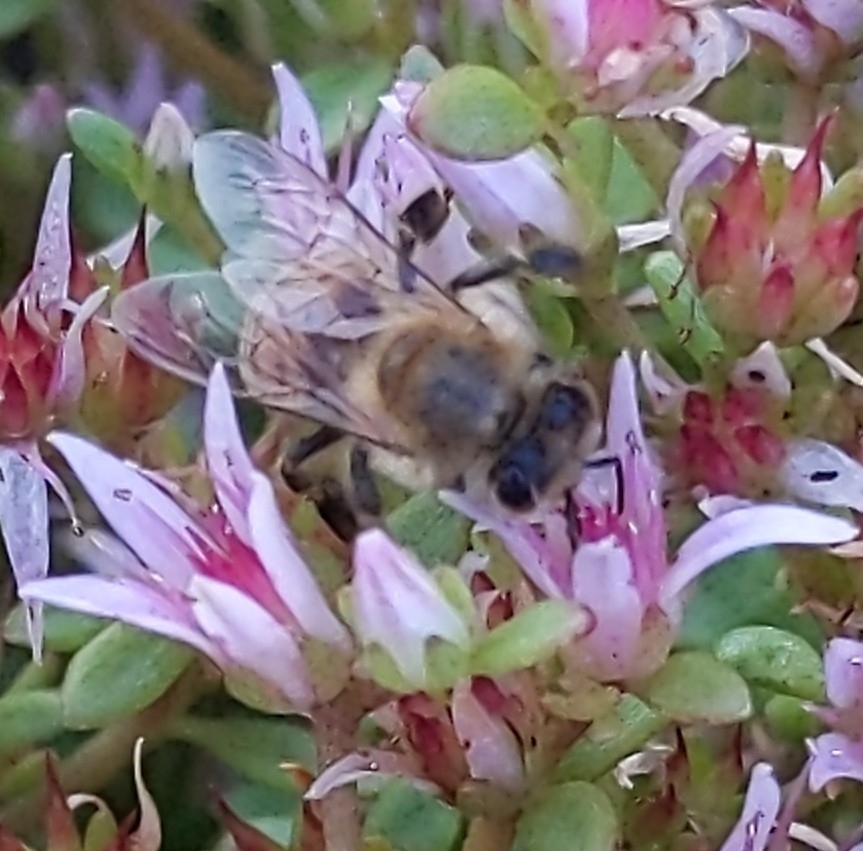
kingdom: Animalia
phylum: Arthropoda
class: Insecta
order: Hymenoptera
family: Apidae
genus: Apis
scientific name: Apis mellifera
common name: Honey bee
